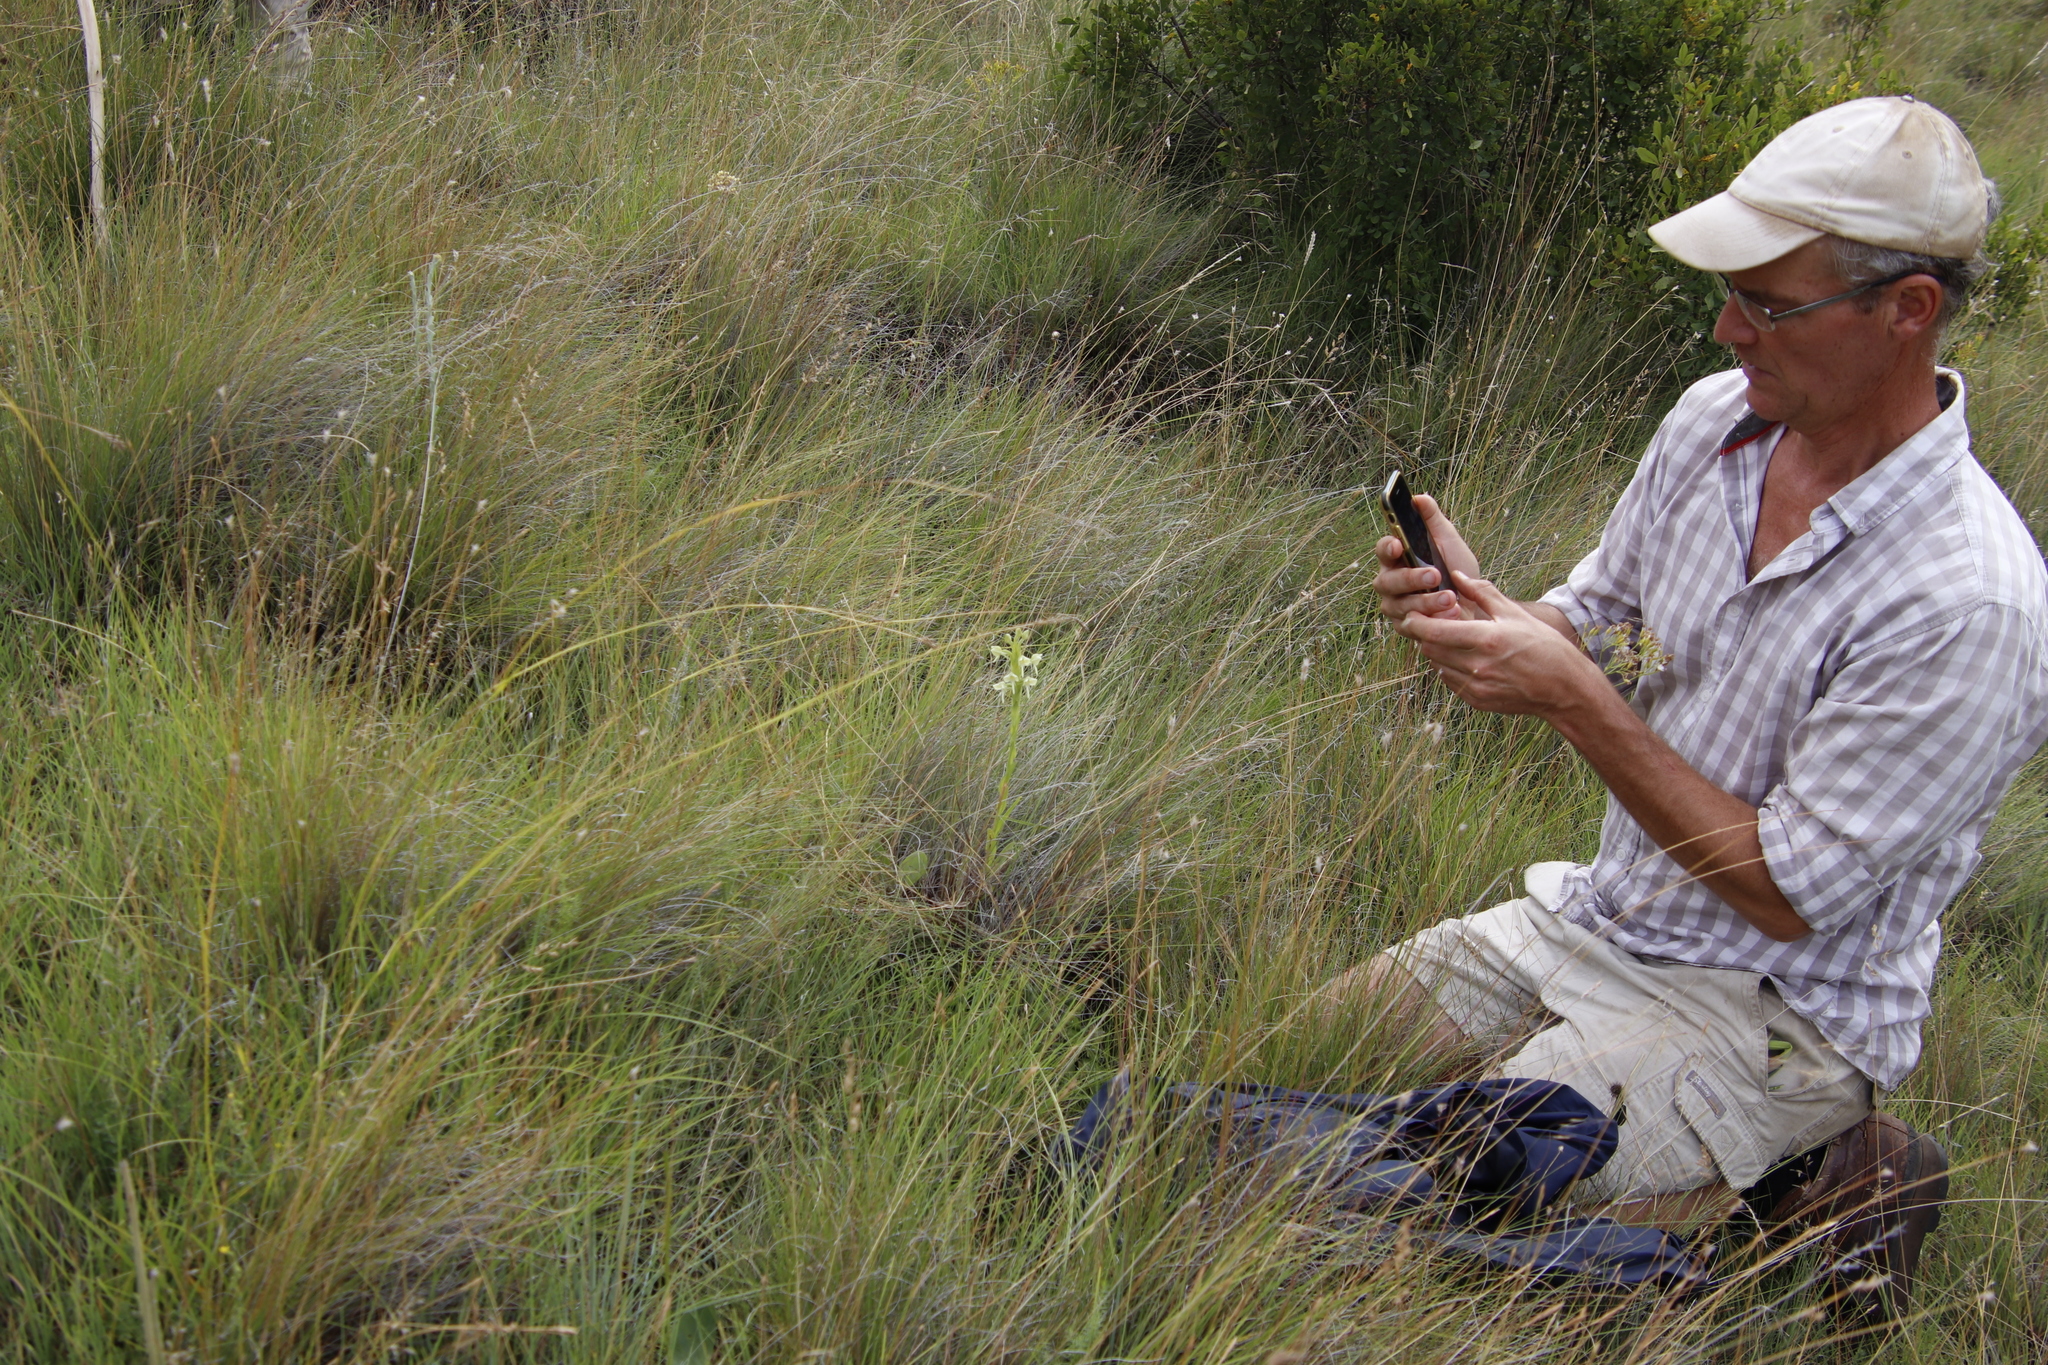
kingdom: Plantae
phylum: Tracheophyta
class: Liliopsida
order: Asparagales
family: Orchidaceae
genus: Habenaria
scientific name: Habenaria epipactidea
